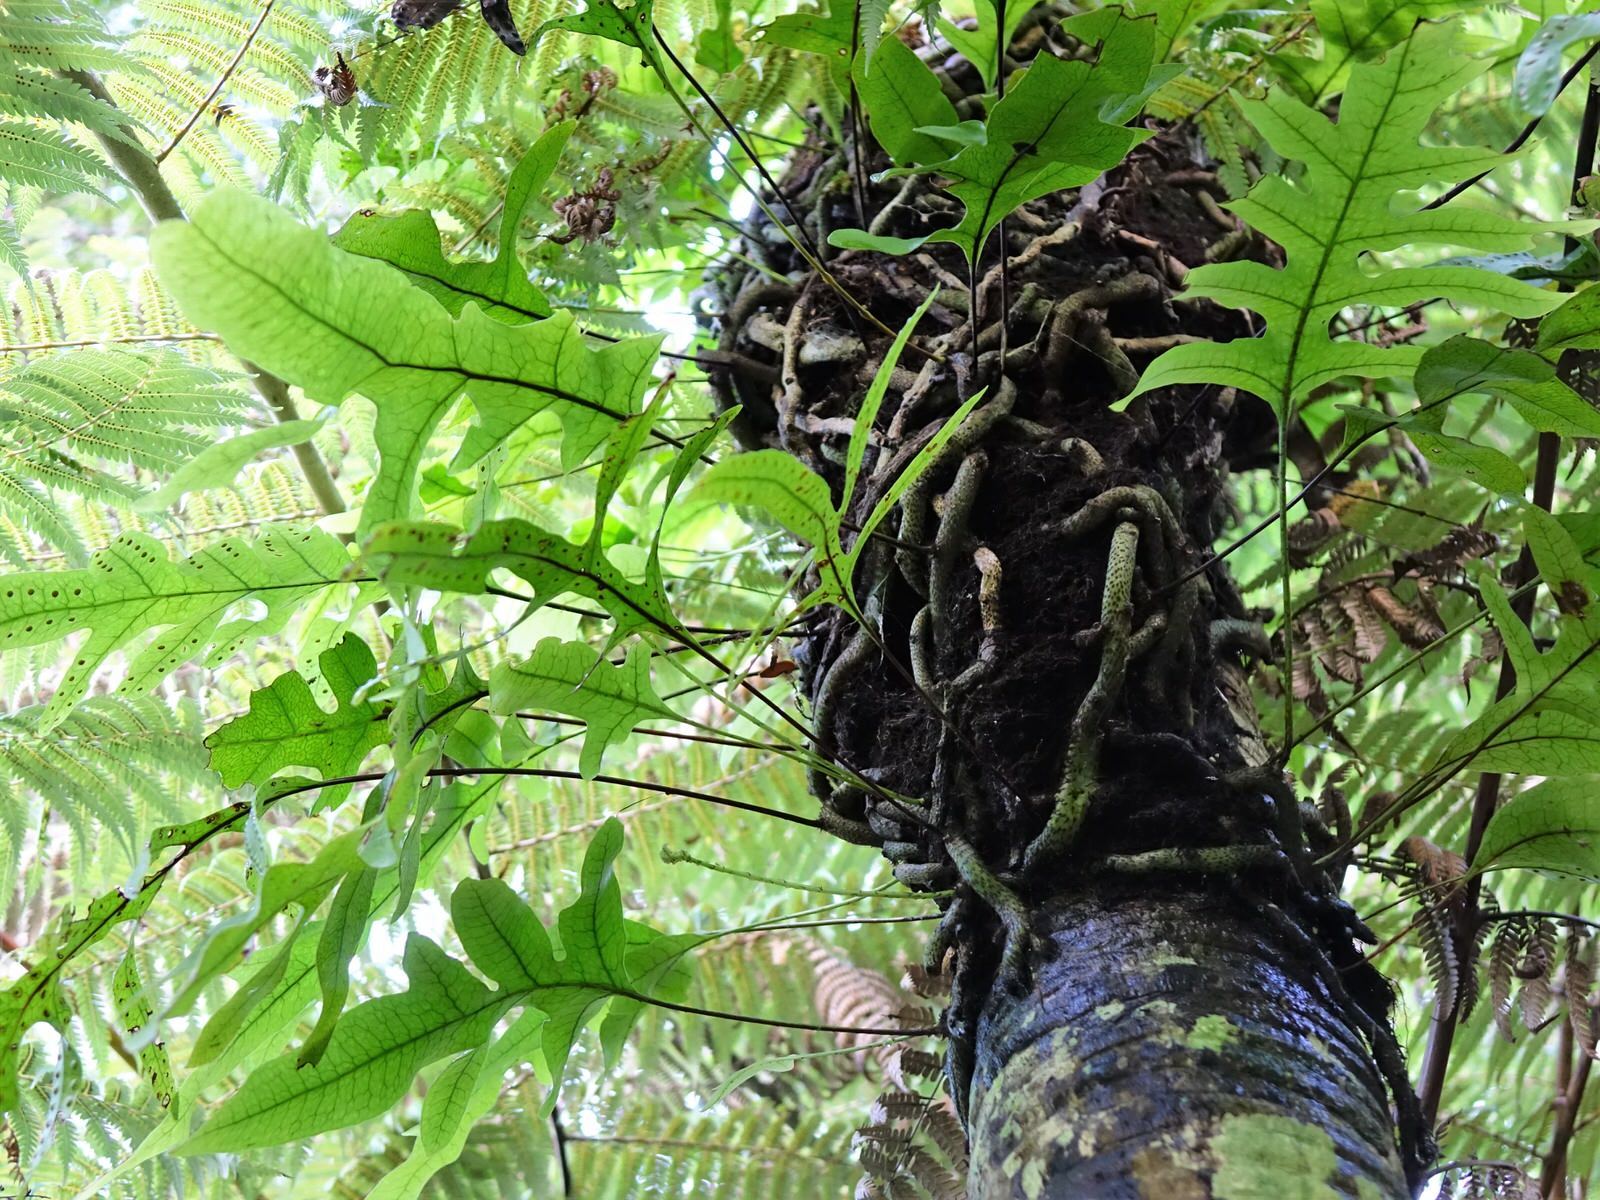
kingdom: Plantae
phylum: Tracheophyta
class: Polypodiopsida
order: Polypodiales
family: Polypodiaceae
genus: Lecanopteris
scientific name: Lecanopteris pustulata
